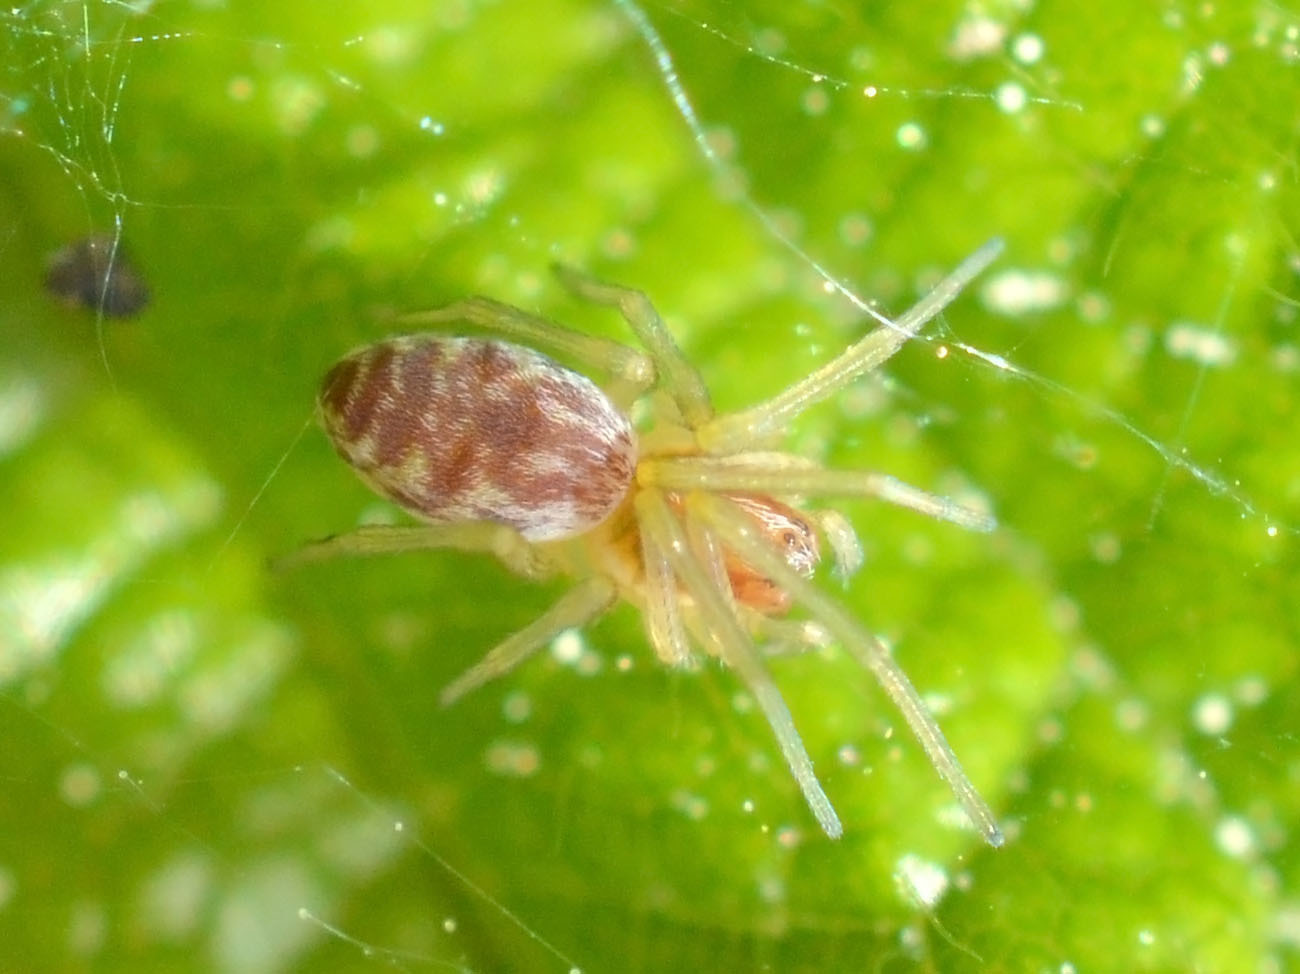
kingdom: Animalia
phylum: Arthropoda
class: Arachnida
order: Araneae
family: Dictynidae
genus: Nigma
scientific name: Nigma flavescens
